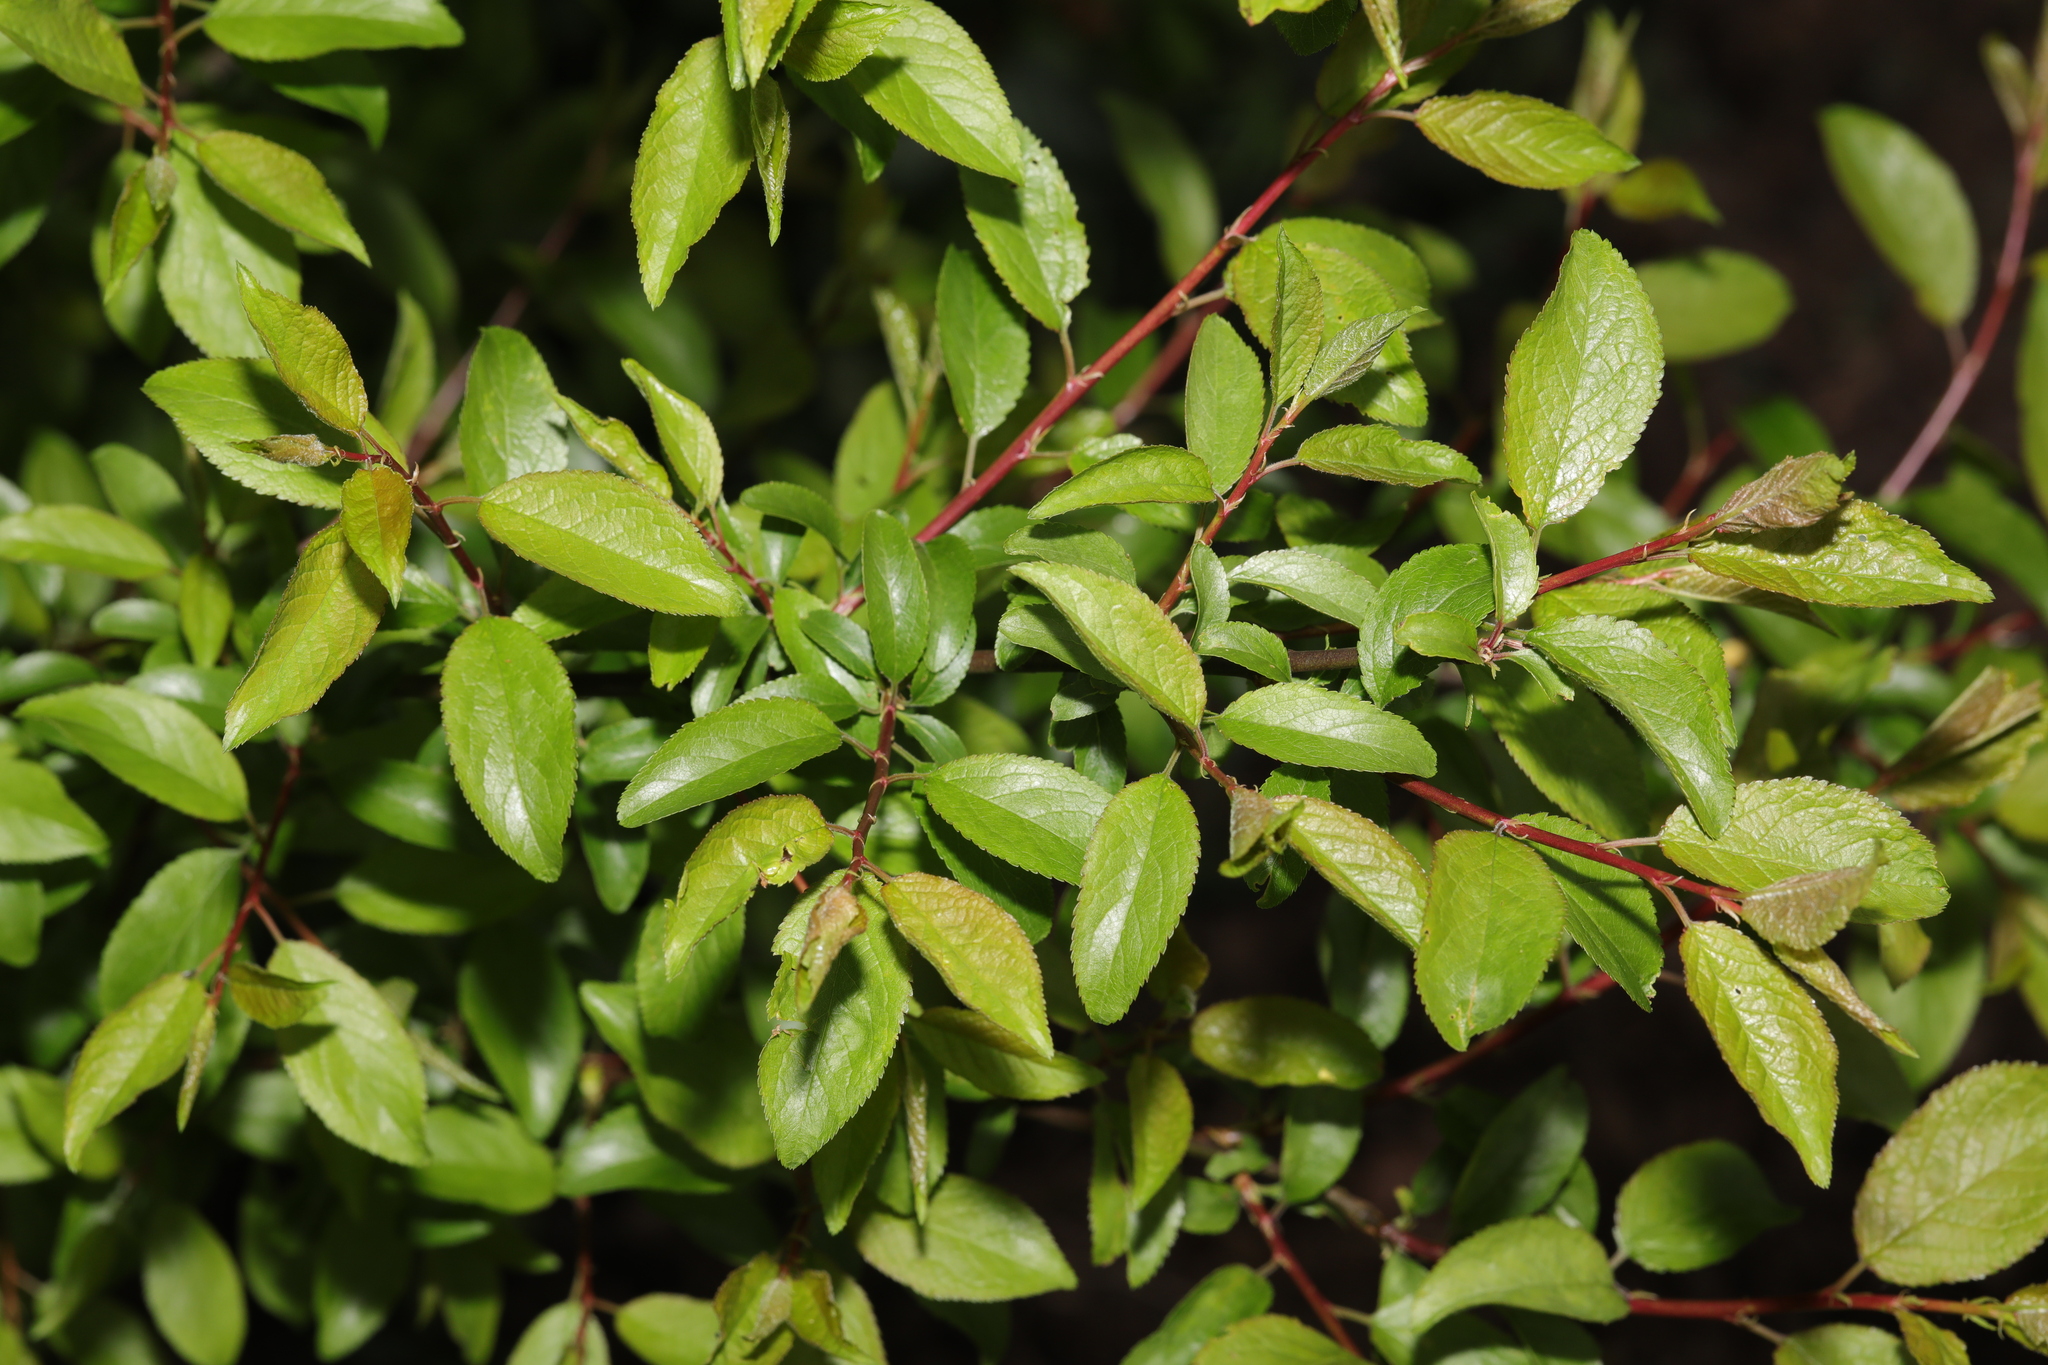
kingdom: Plantae
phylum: Tracheophyta
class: Magnoliopsida
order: Rosales
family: Rosaceae
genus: Prunus
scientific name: Prunus spinosa
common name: Blackthorn
